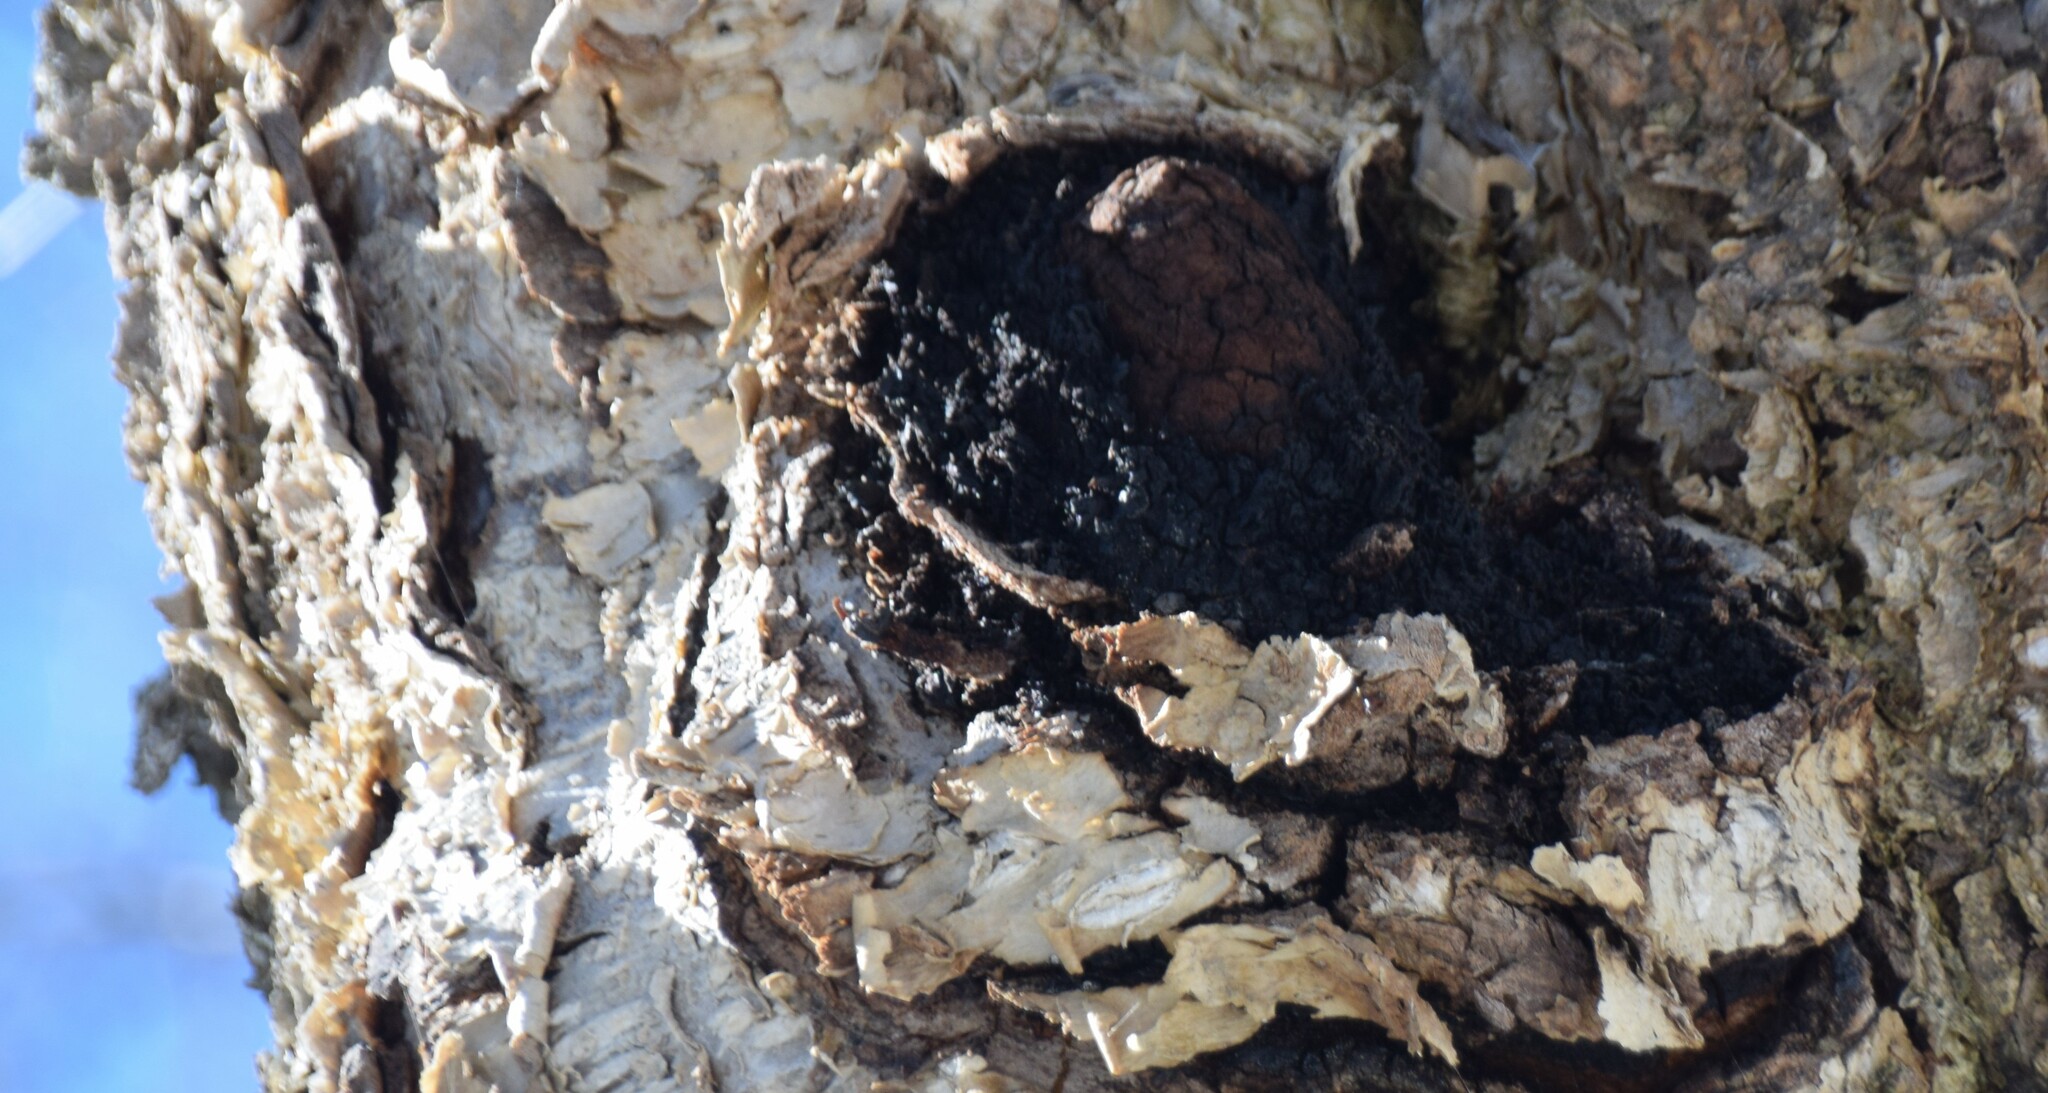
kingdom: Fungi
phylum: Basidiomycota
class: Agaricomycetes
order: Hymenochaetales
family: Hymenochaetaceae
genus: Inonotus
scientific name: Inonotus obliquus
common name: Chaga
